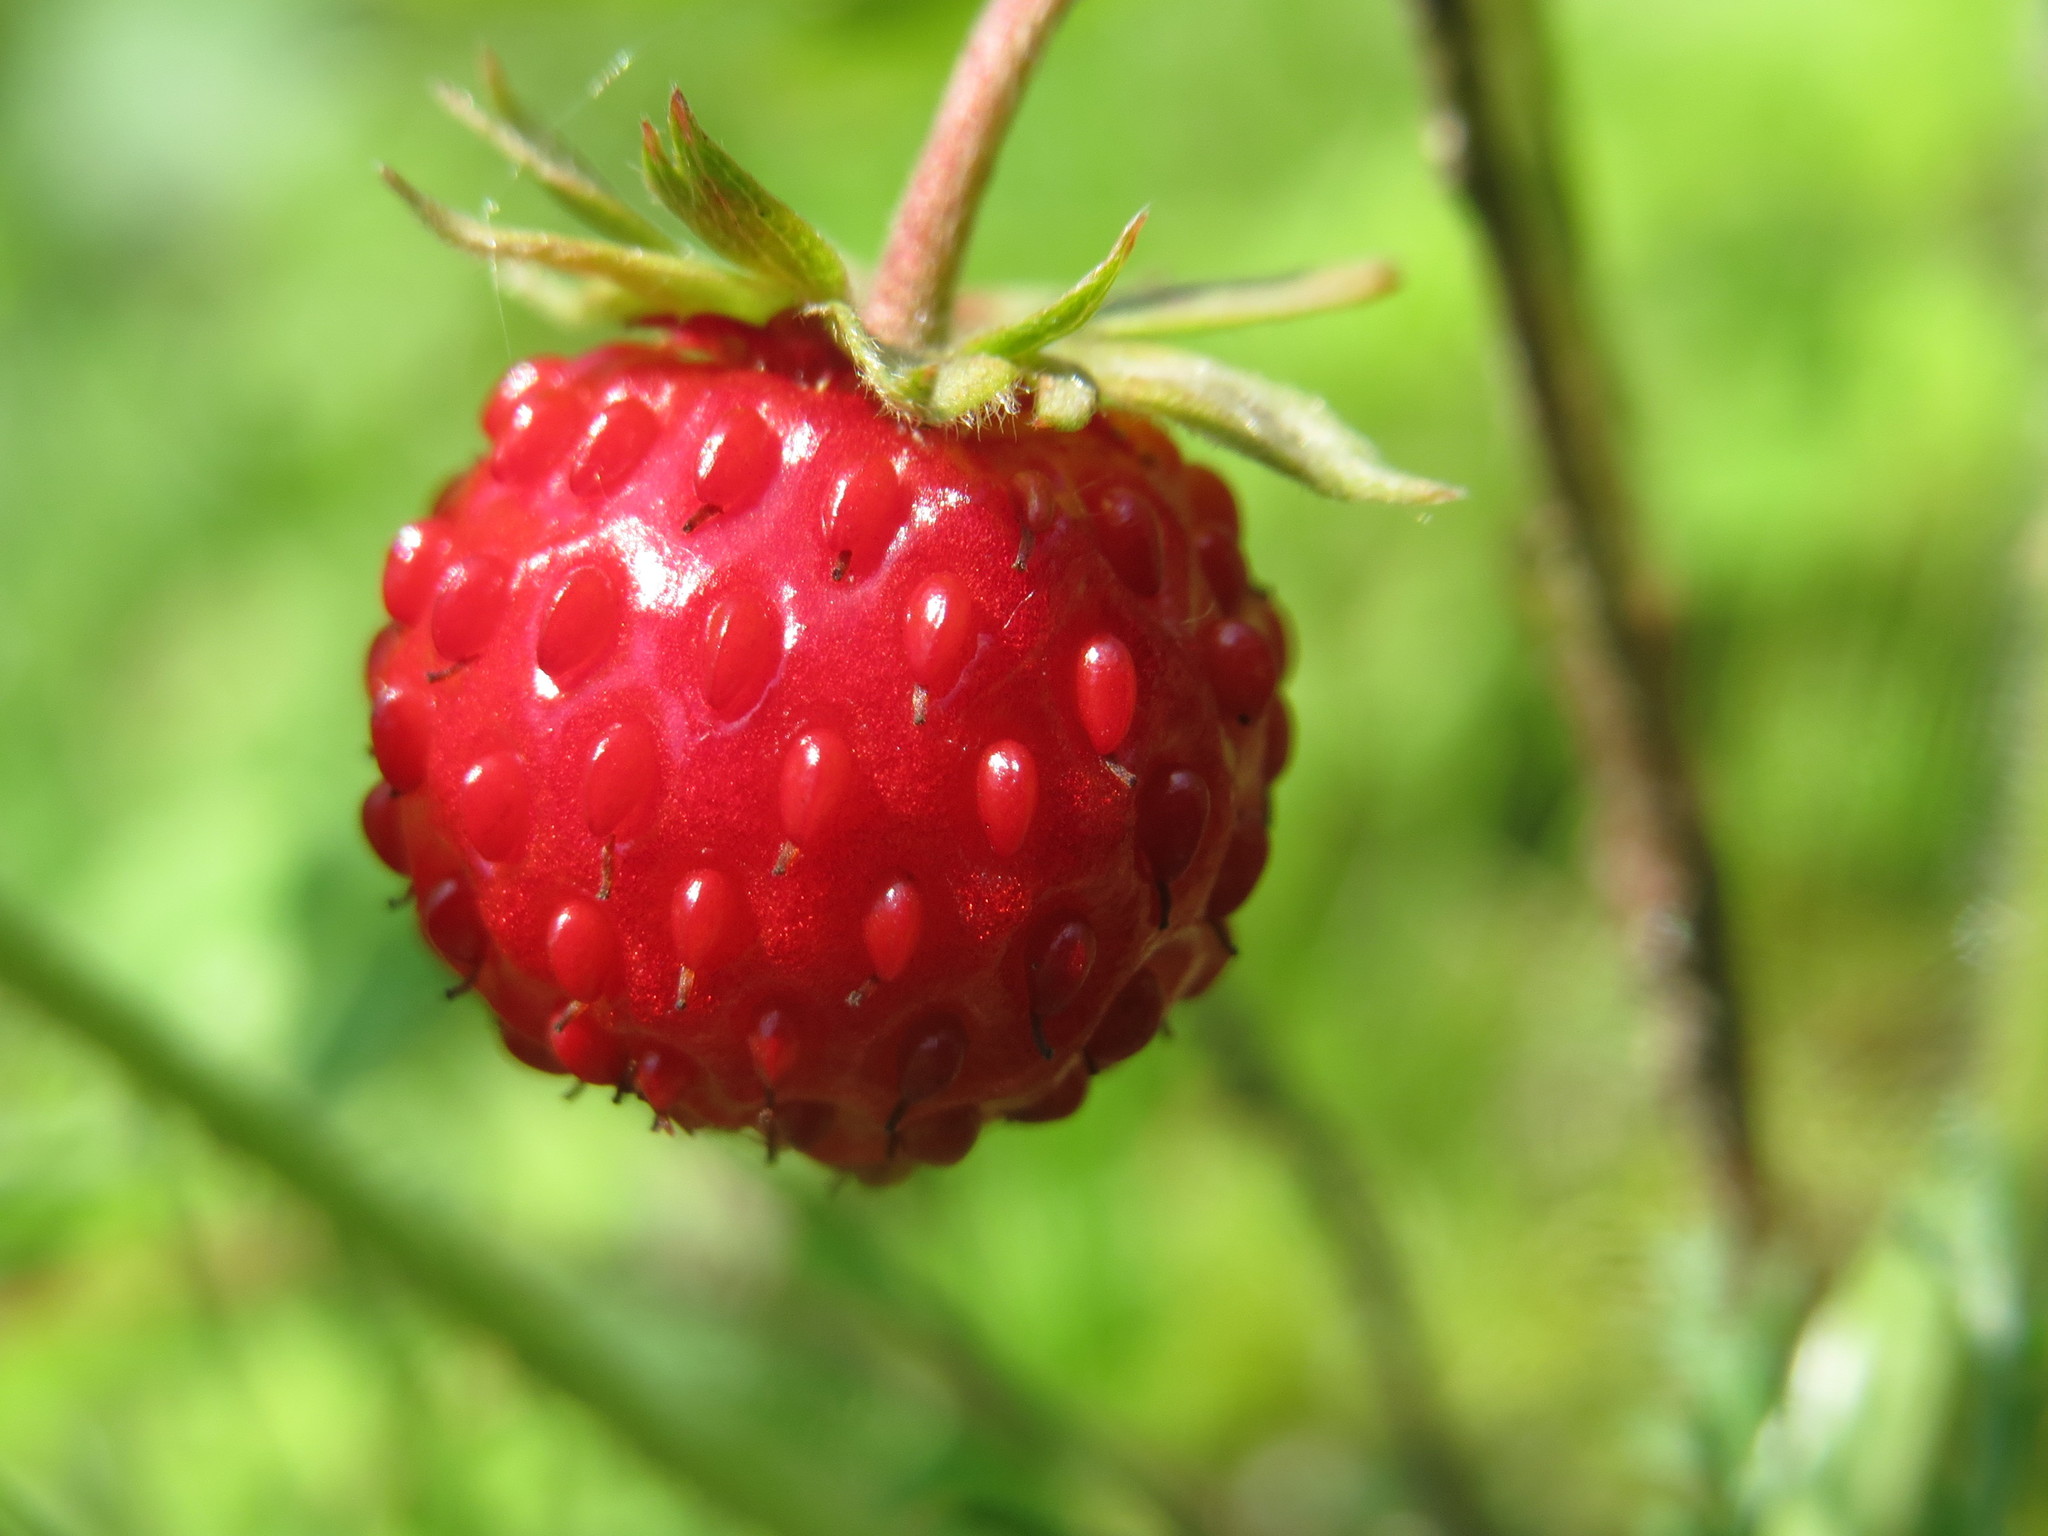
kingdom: Plantae
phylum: Tracheophyta
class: Magnoliopsida
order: Rosales
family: Rosaceae
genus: Fragaria
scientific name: Fragaria vesca
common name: Wild strawberry
